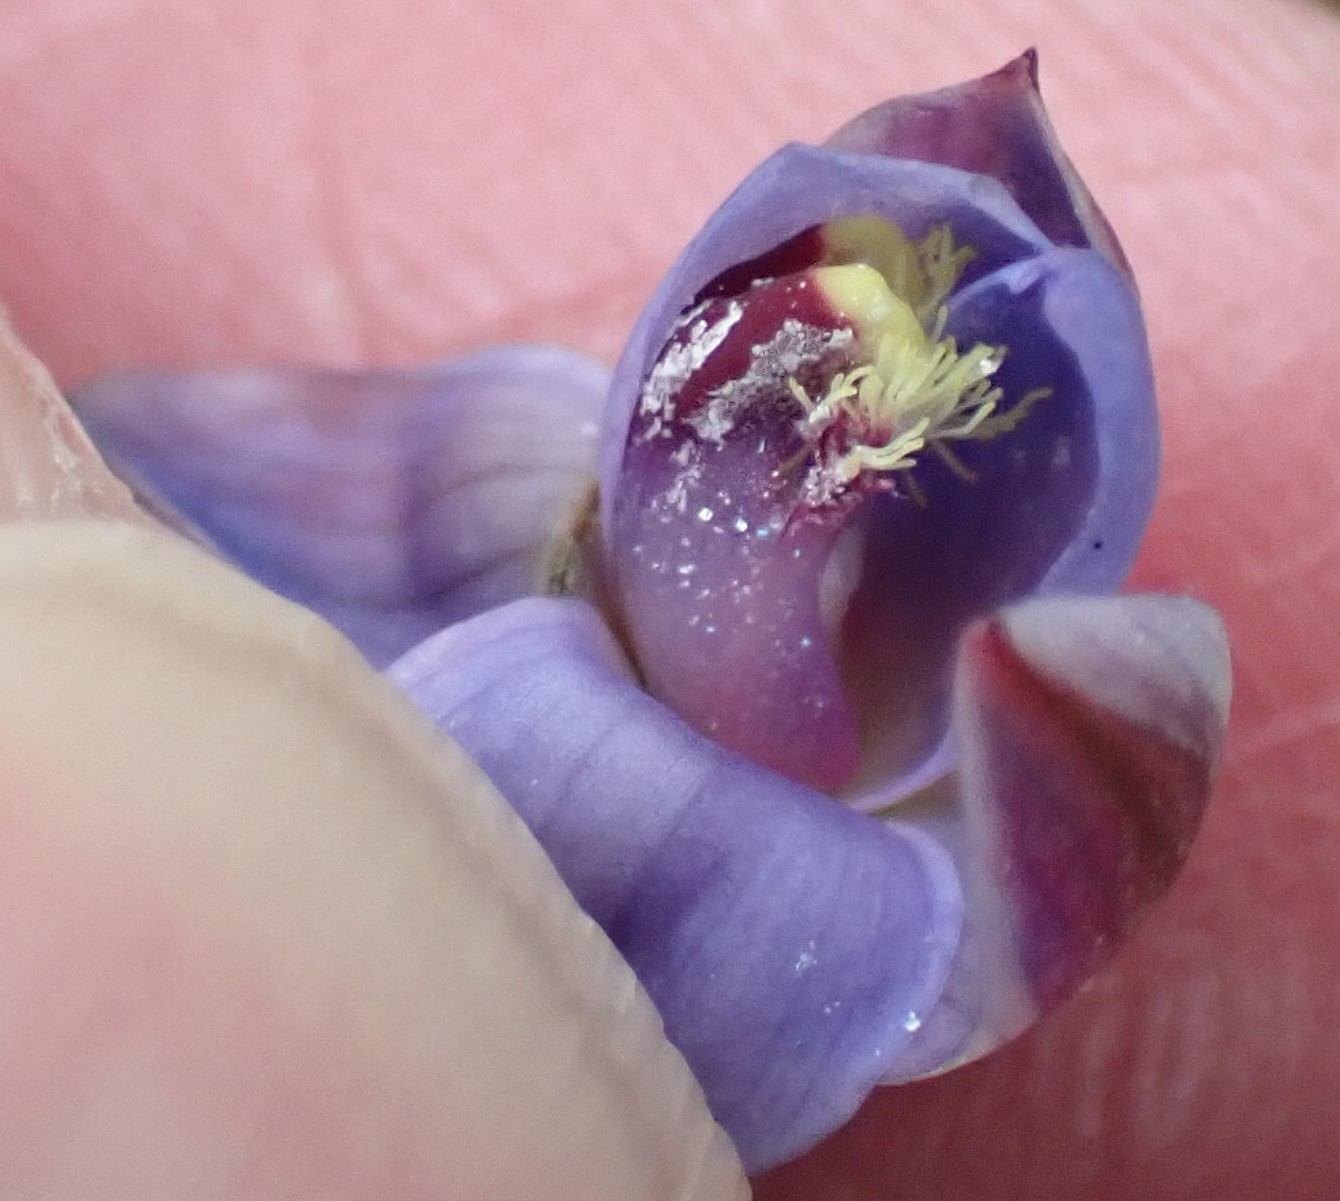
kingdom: Plantae
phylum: Tracheophyta
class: Liliopsida
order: Asparagales
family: Orchidaceae
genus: Thelymitra
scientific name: Thelymitra mucida
